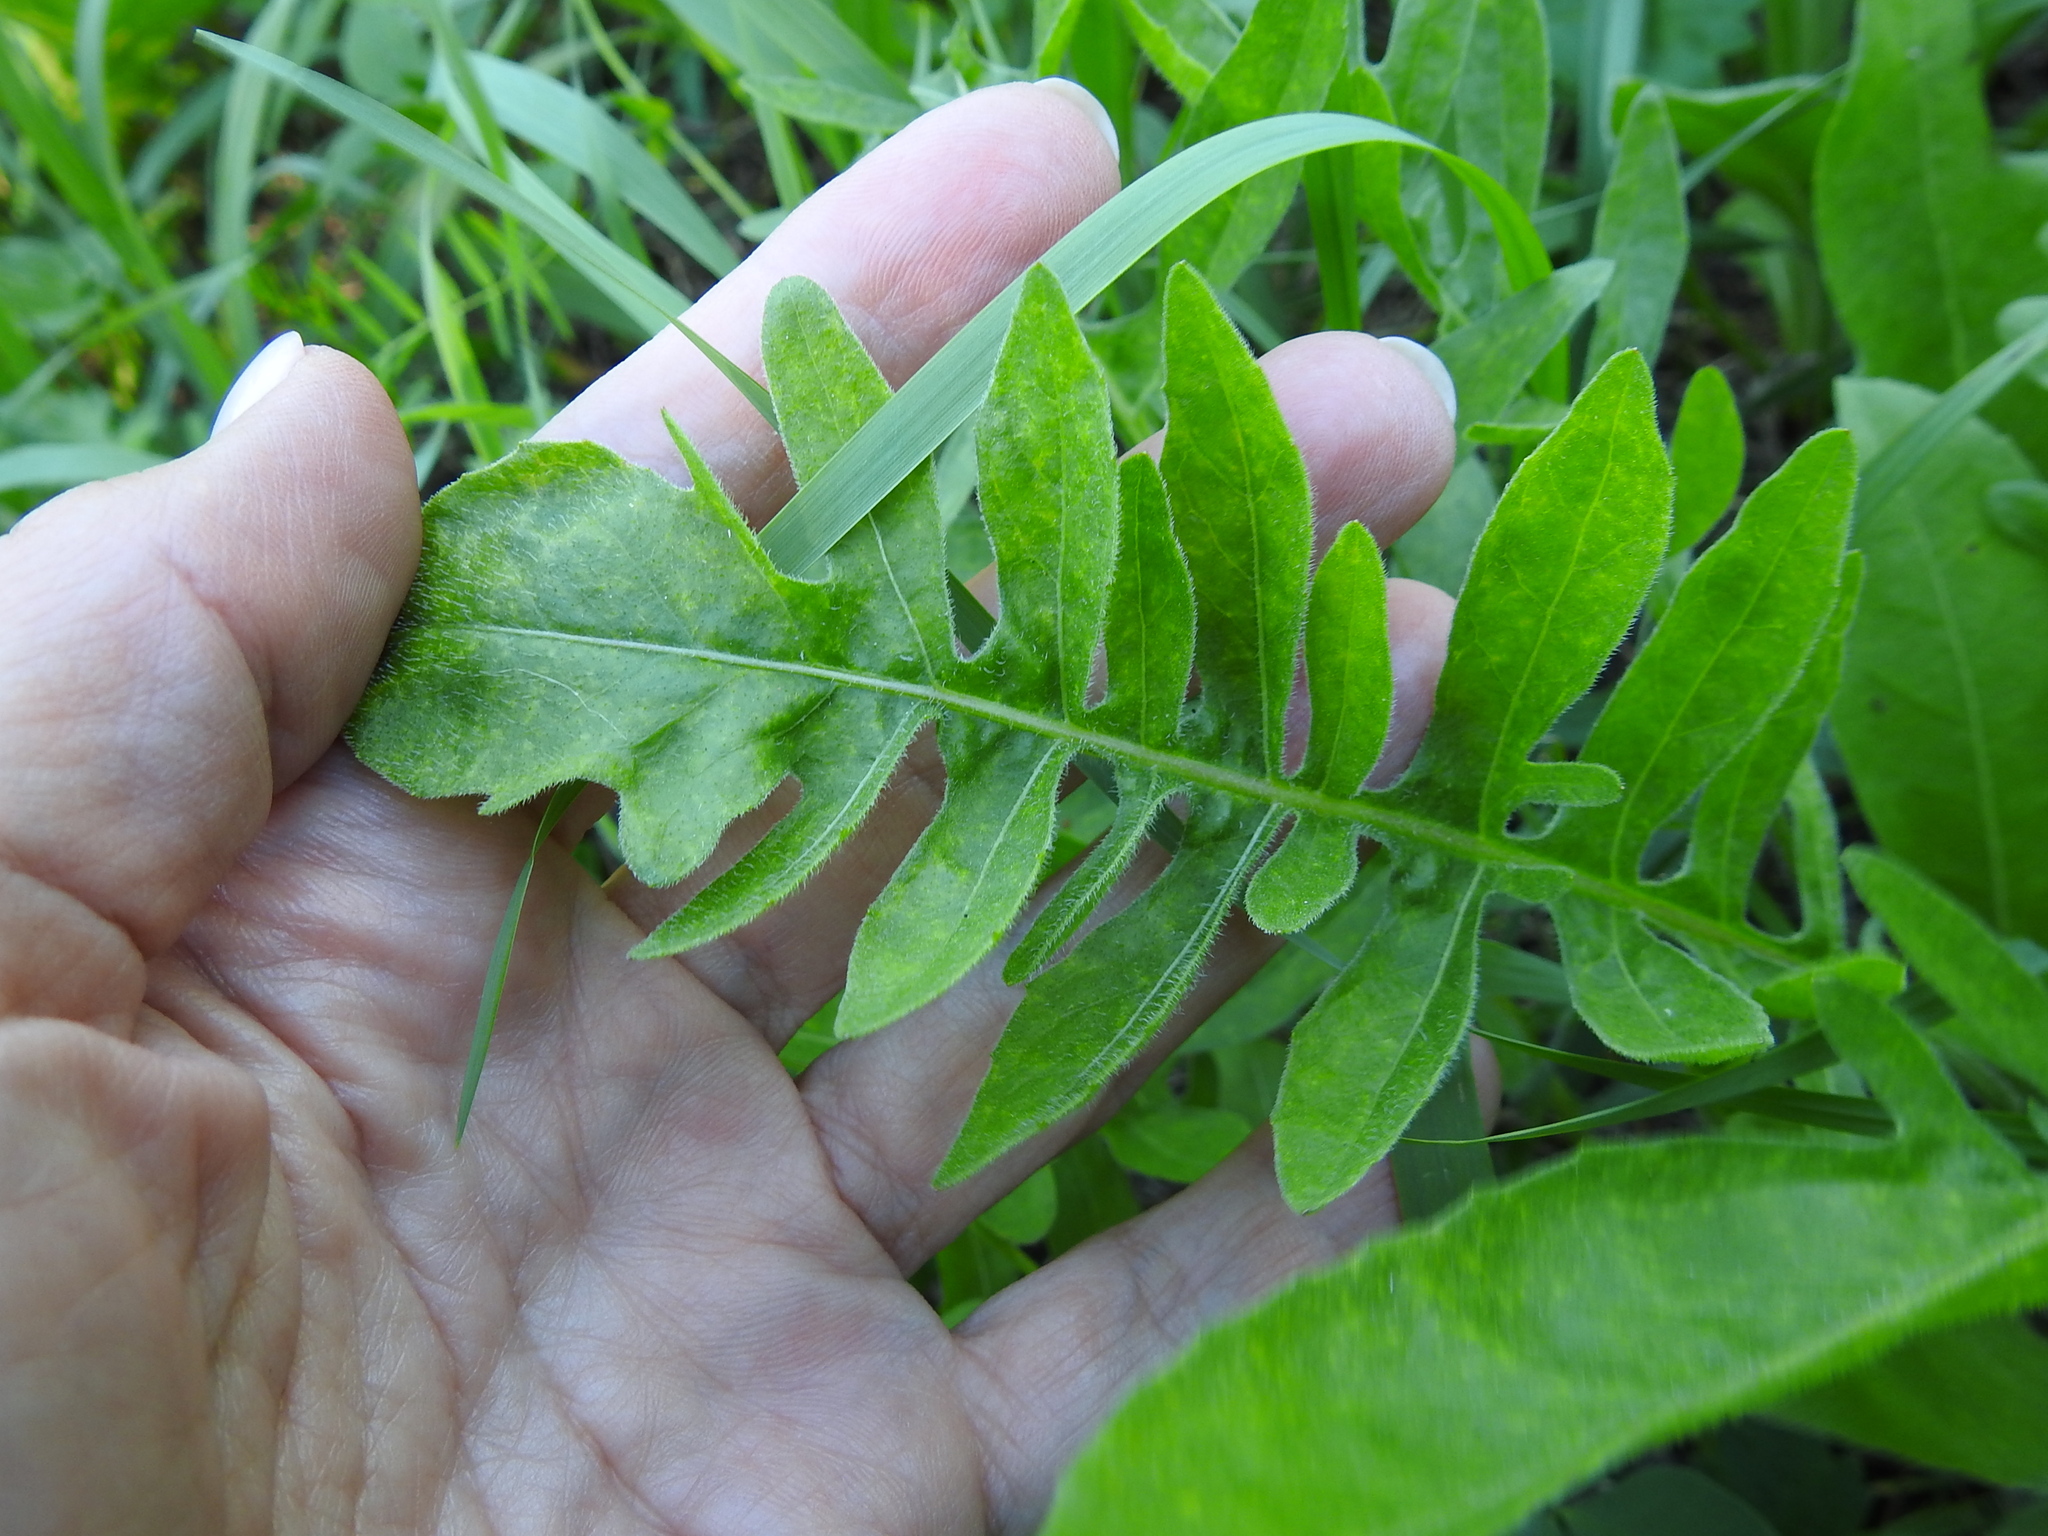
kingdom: Plantae
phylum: Tracheophyta
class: Magnoliopsida
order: Asterales
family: Asteraceae
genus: Centaurea
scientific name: Centaurea scabiosa
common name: Greater knapweed
